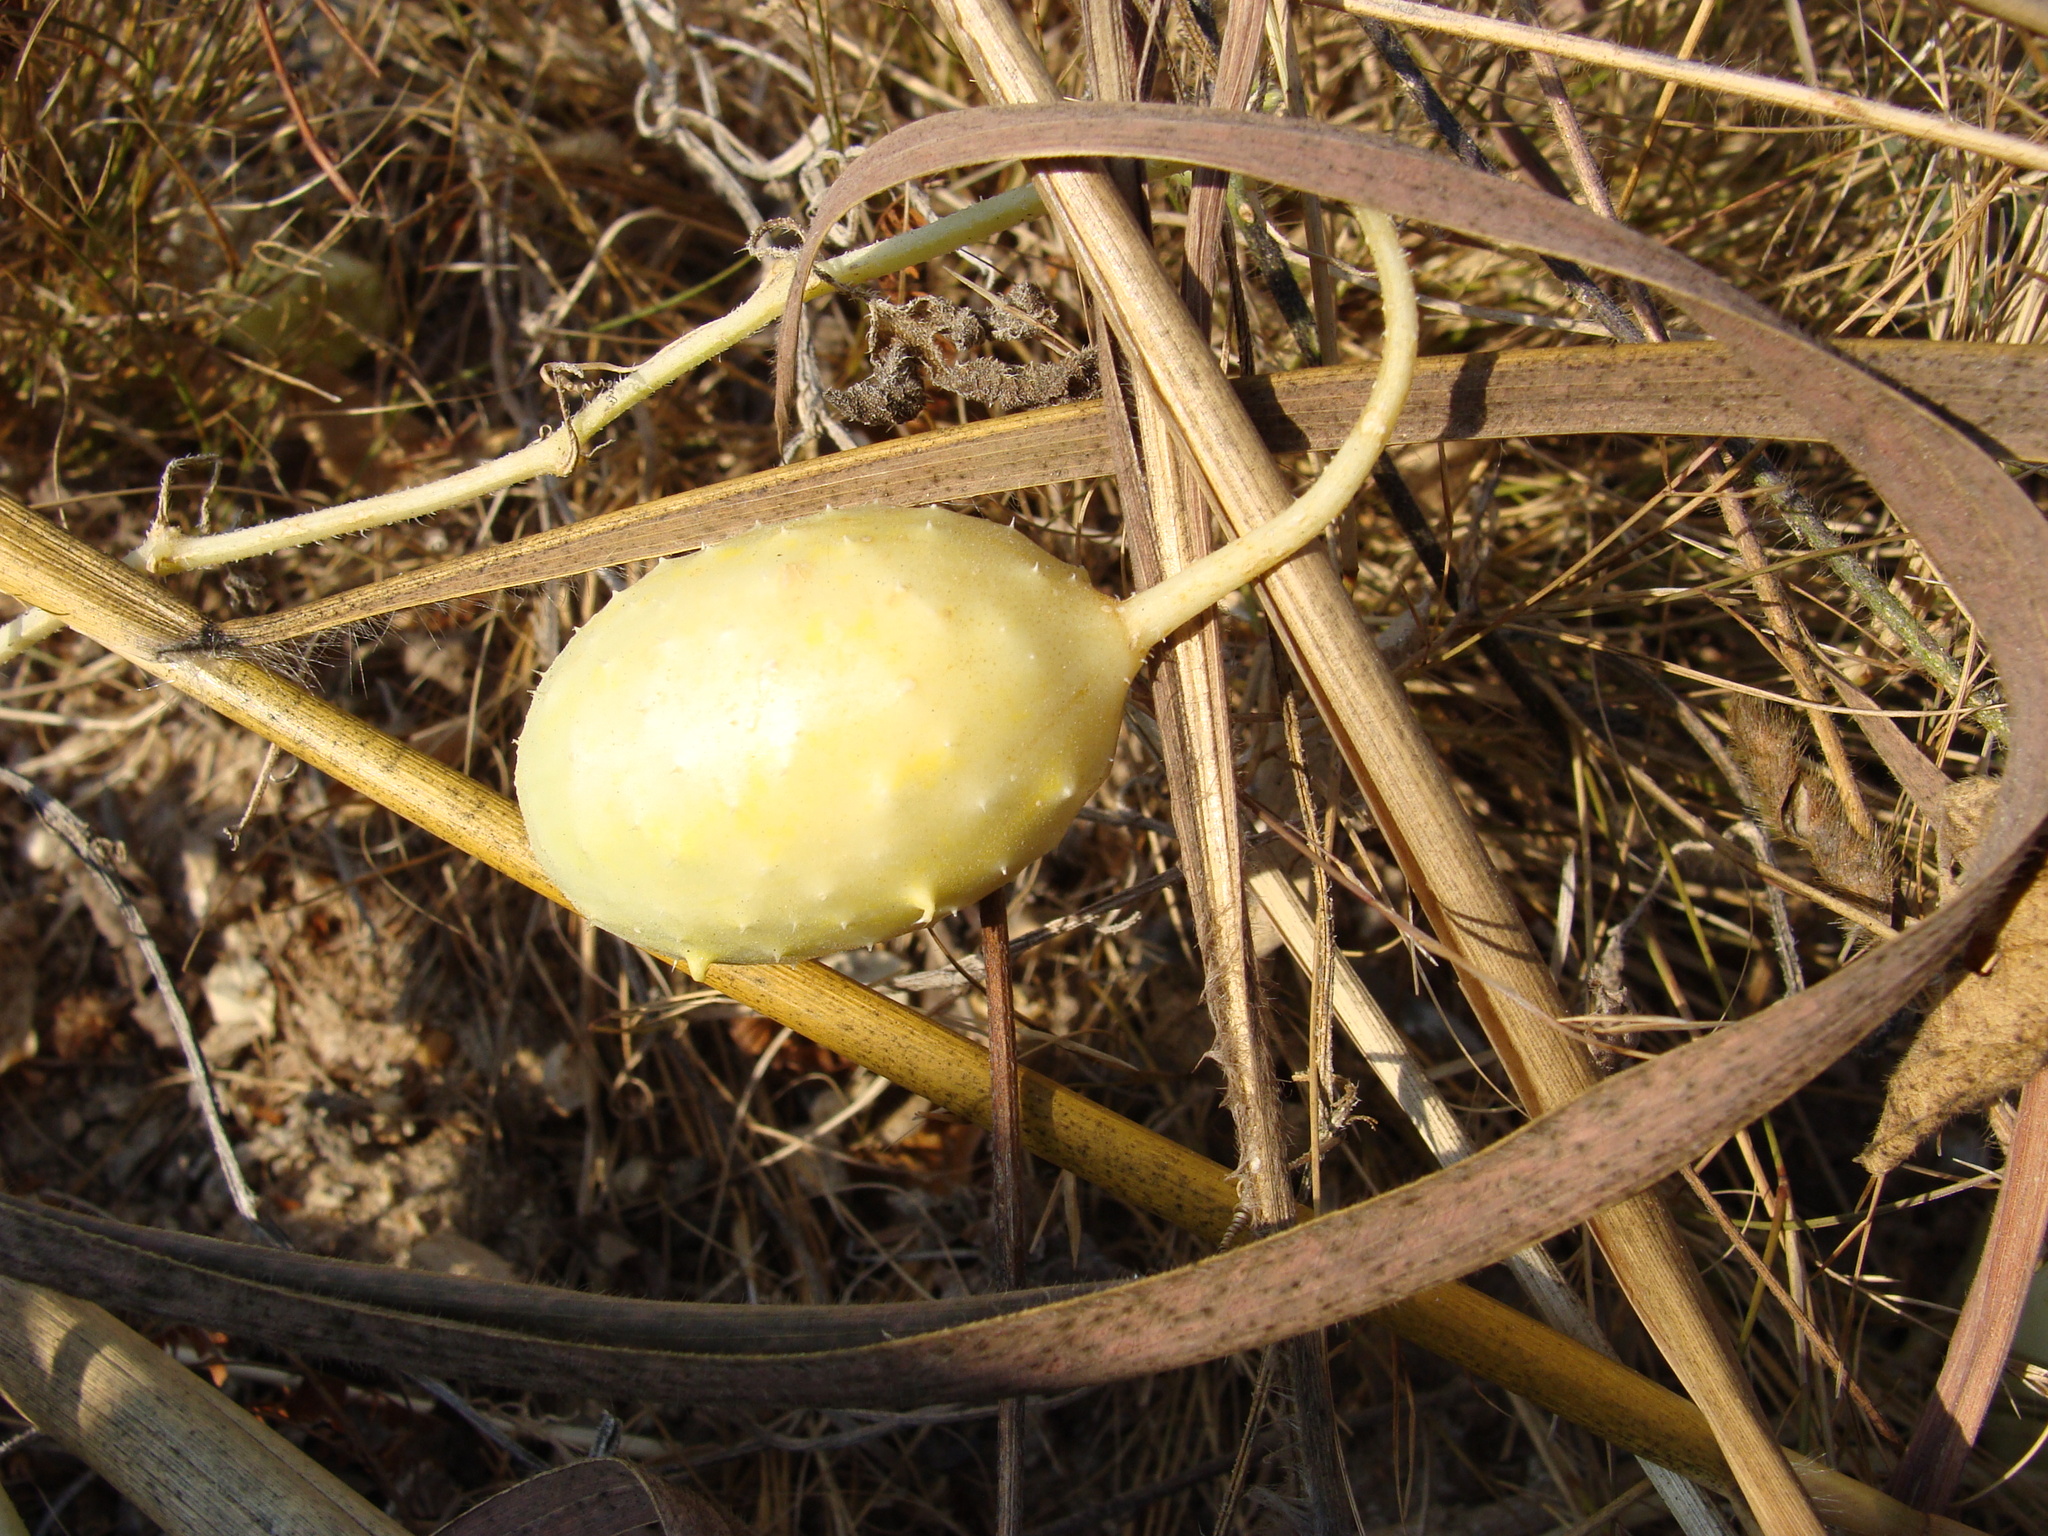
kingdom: Plantae
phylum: Tracheophyta
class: Magnoliopsida
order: Cucurbitales
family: Cucurbitaceae
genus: Cucumis
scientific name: Cucumis anguria
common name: West indian gherkin
